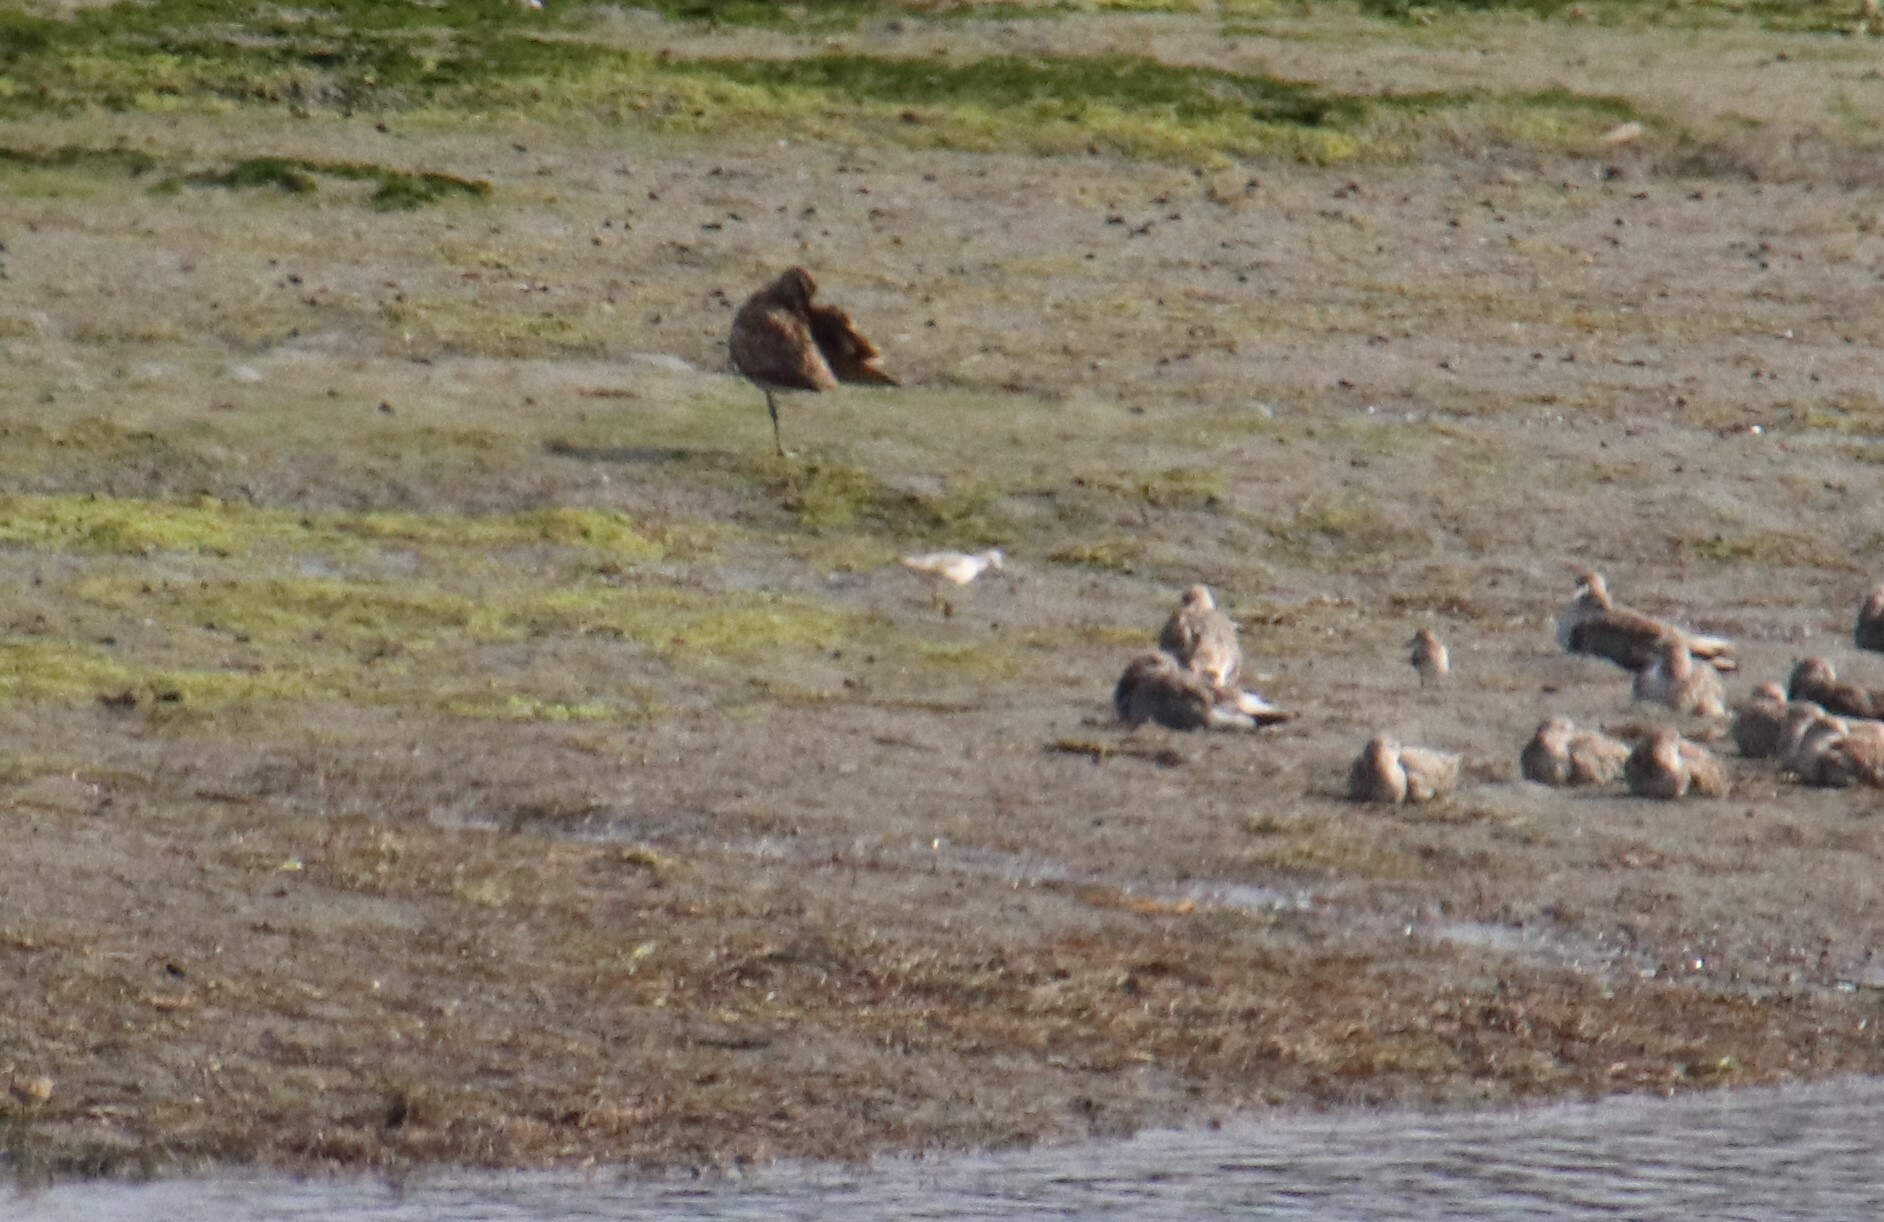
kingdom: Animalia
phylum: Chordata
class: Aves
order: Charadriiformes
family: Scolopacidae
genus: Phalaropus
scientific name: Phalaropus tricolor
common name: Wilson's phalarope
